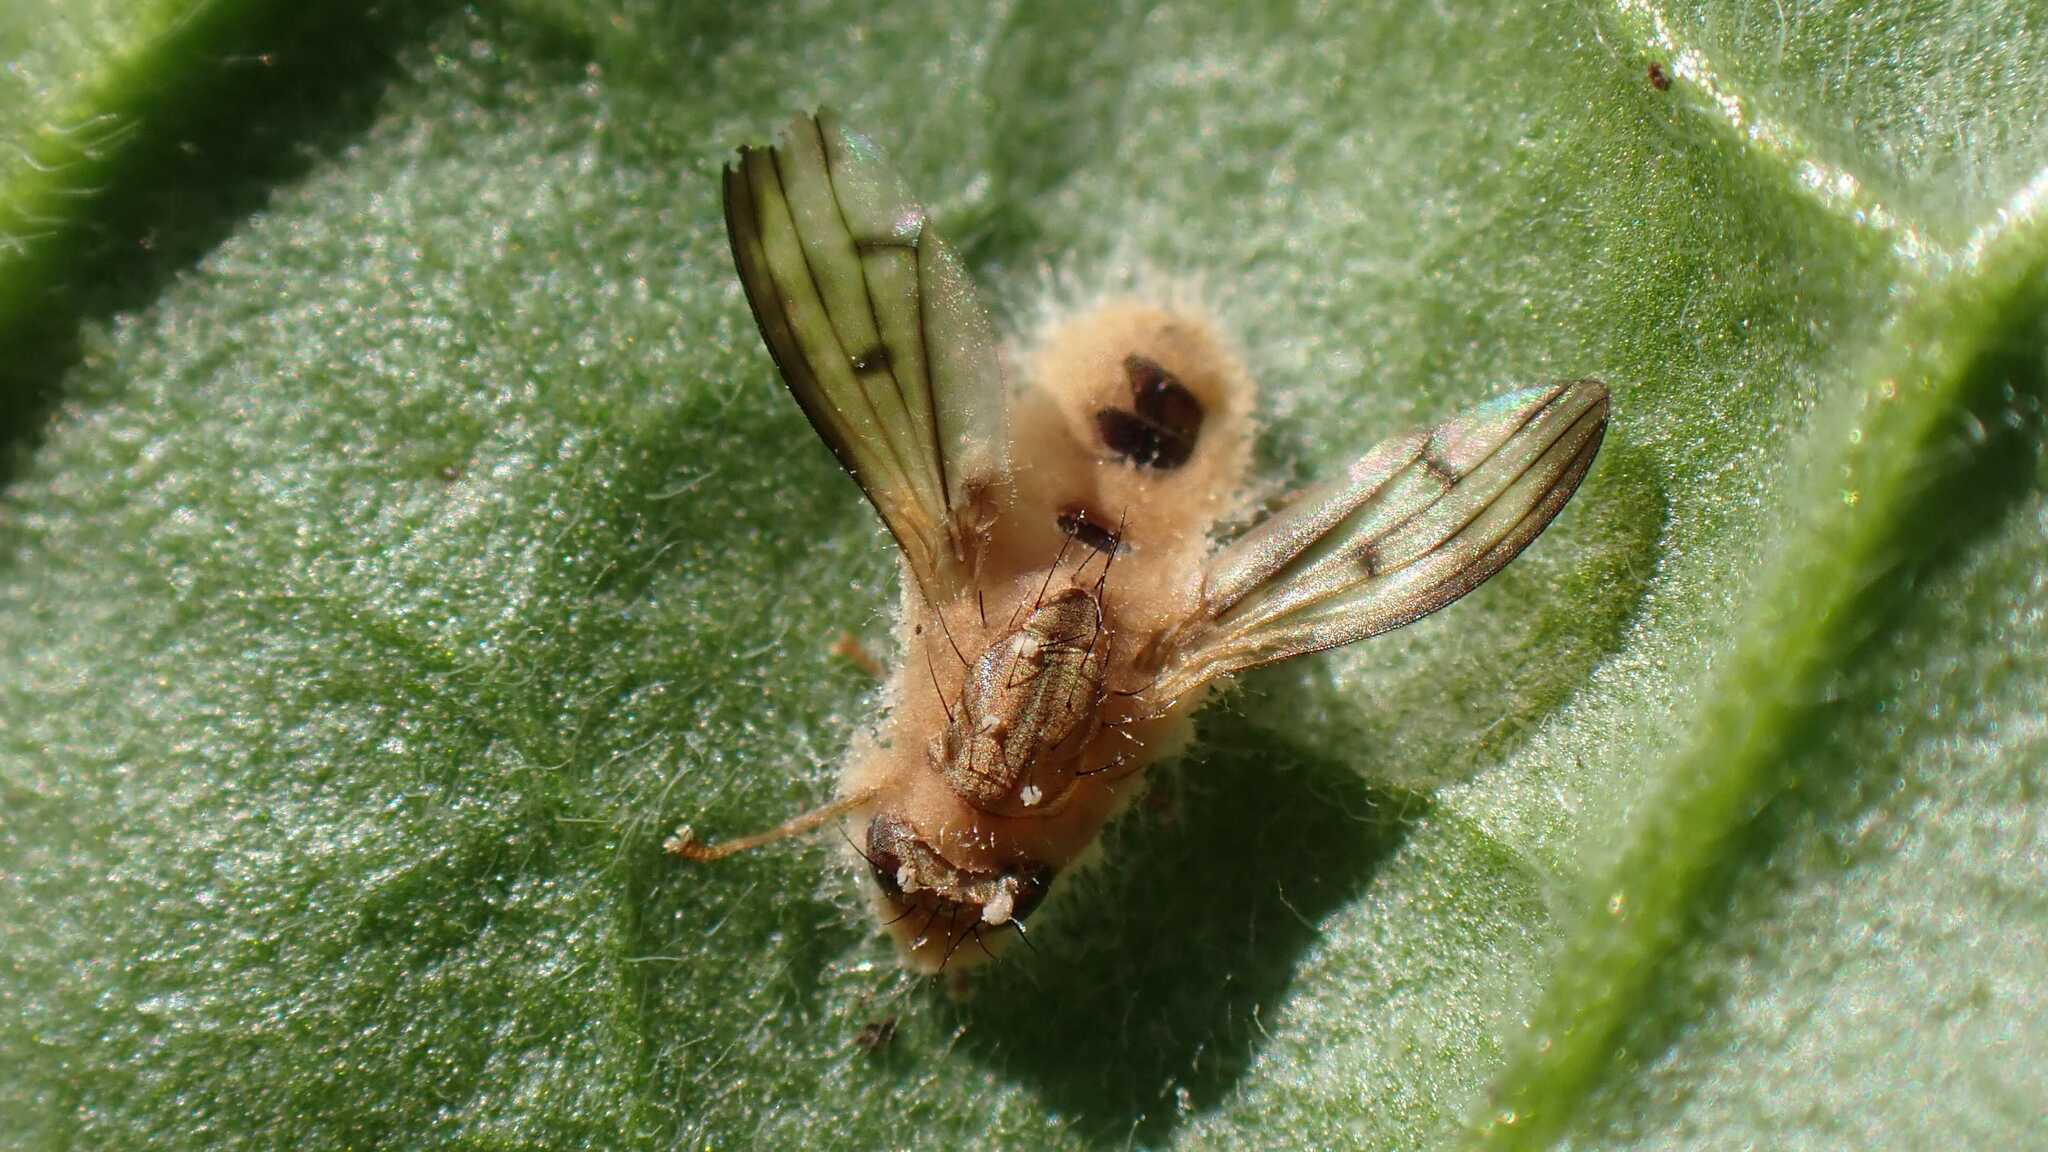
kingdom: Fungi
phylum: Entomophthoromycota
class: Entomophthoromycetes
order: Entomophthorales
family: Entomophthoraceae
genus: Entomophthora
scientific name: Entomophthora
